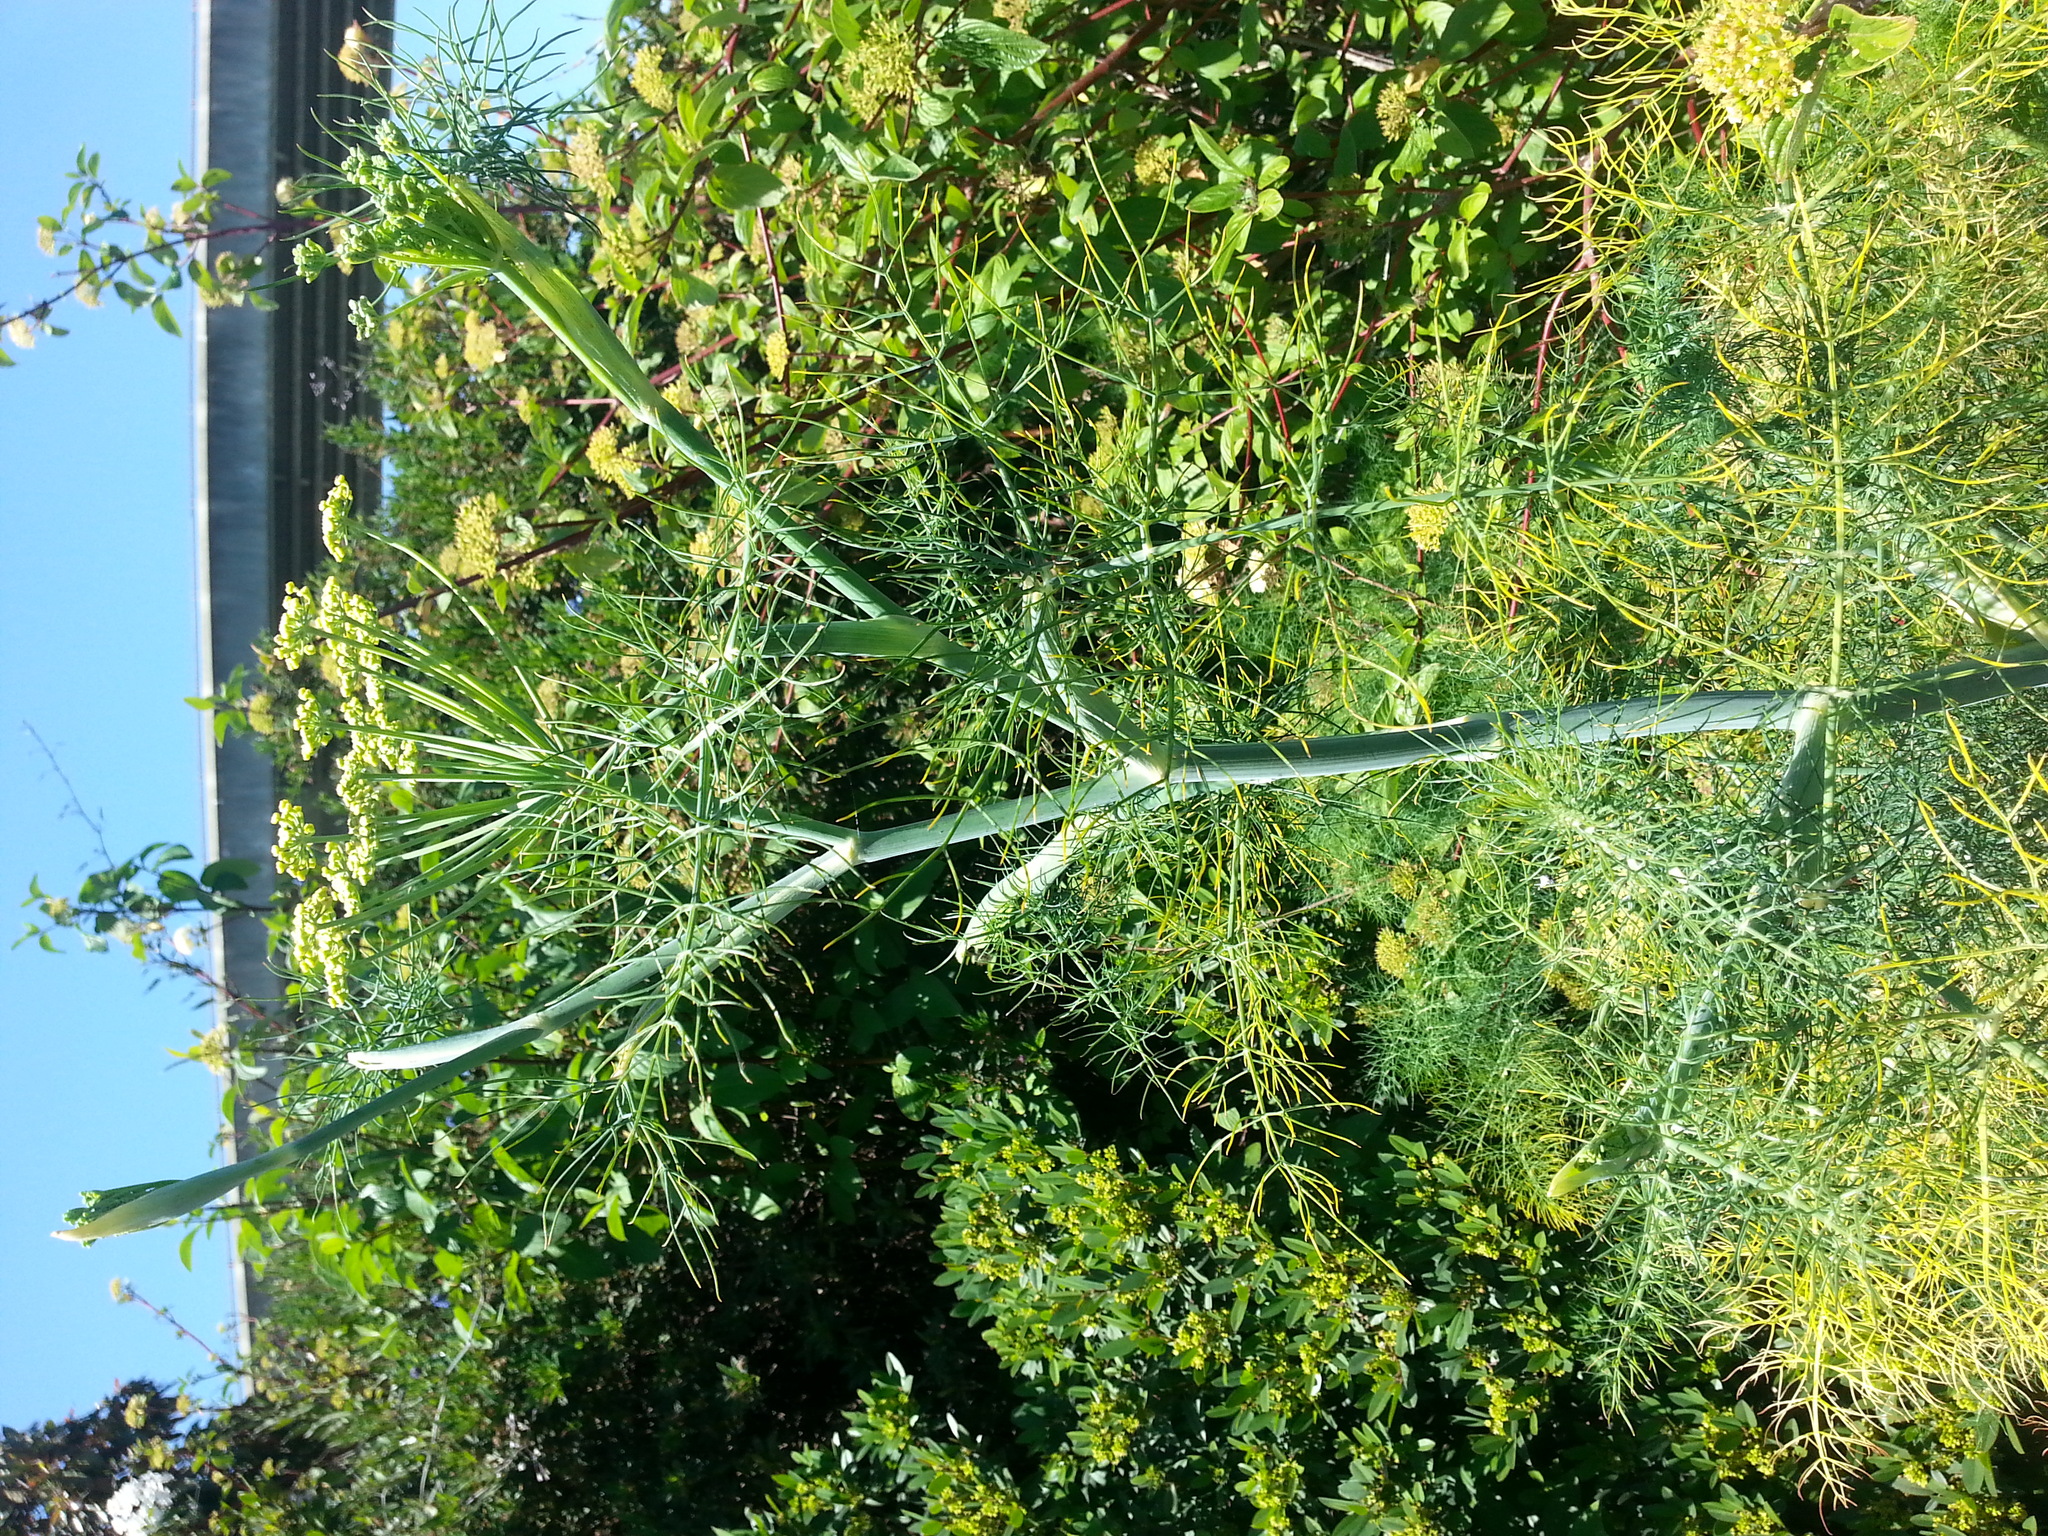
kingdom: Plantae
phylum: Tracheophyta
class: Magnoliopsida
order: Apiales
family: Apiaceae
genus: Foeniculum
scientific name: Foeniculum vulgare
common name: Fennel
